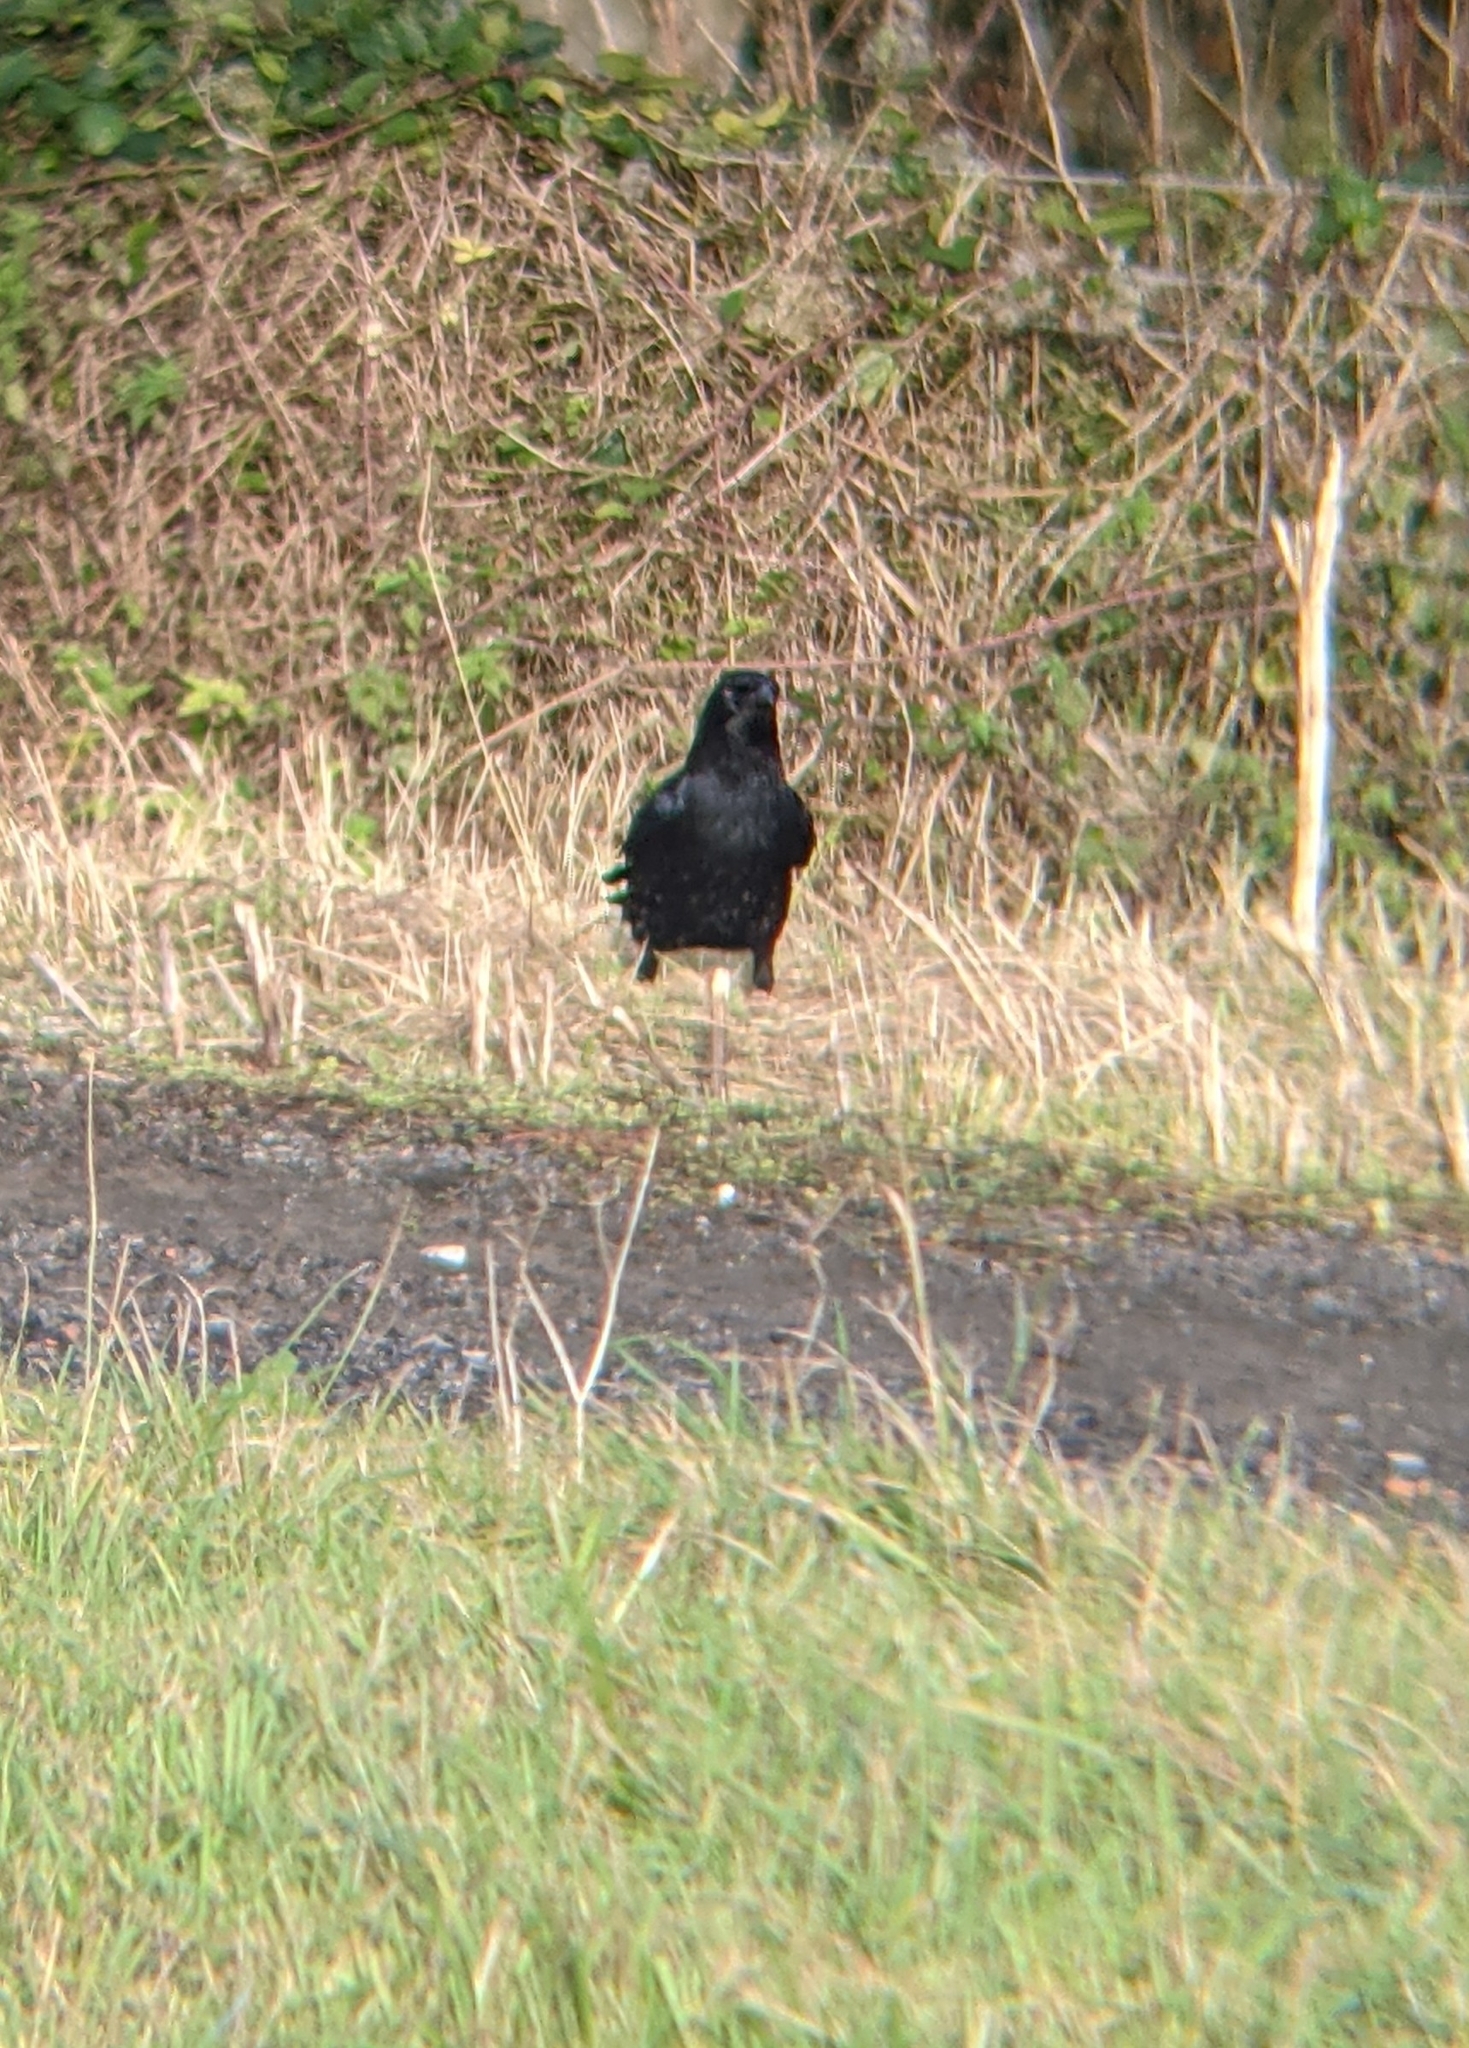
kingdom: Animalia
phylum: Chordata
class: Aves
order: Passeriformes
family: Corvidae
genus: Corvus
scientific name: Corvus corone
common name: Carrion crow
